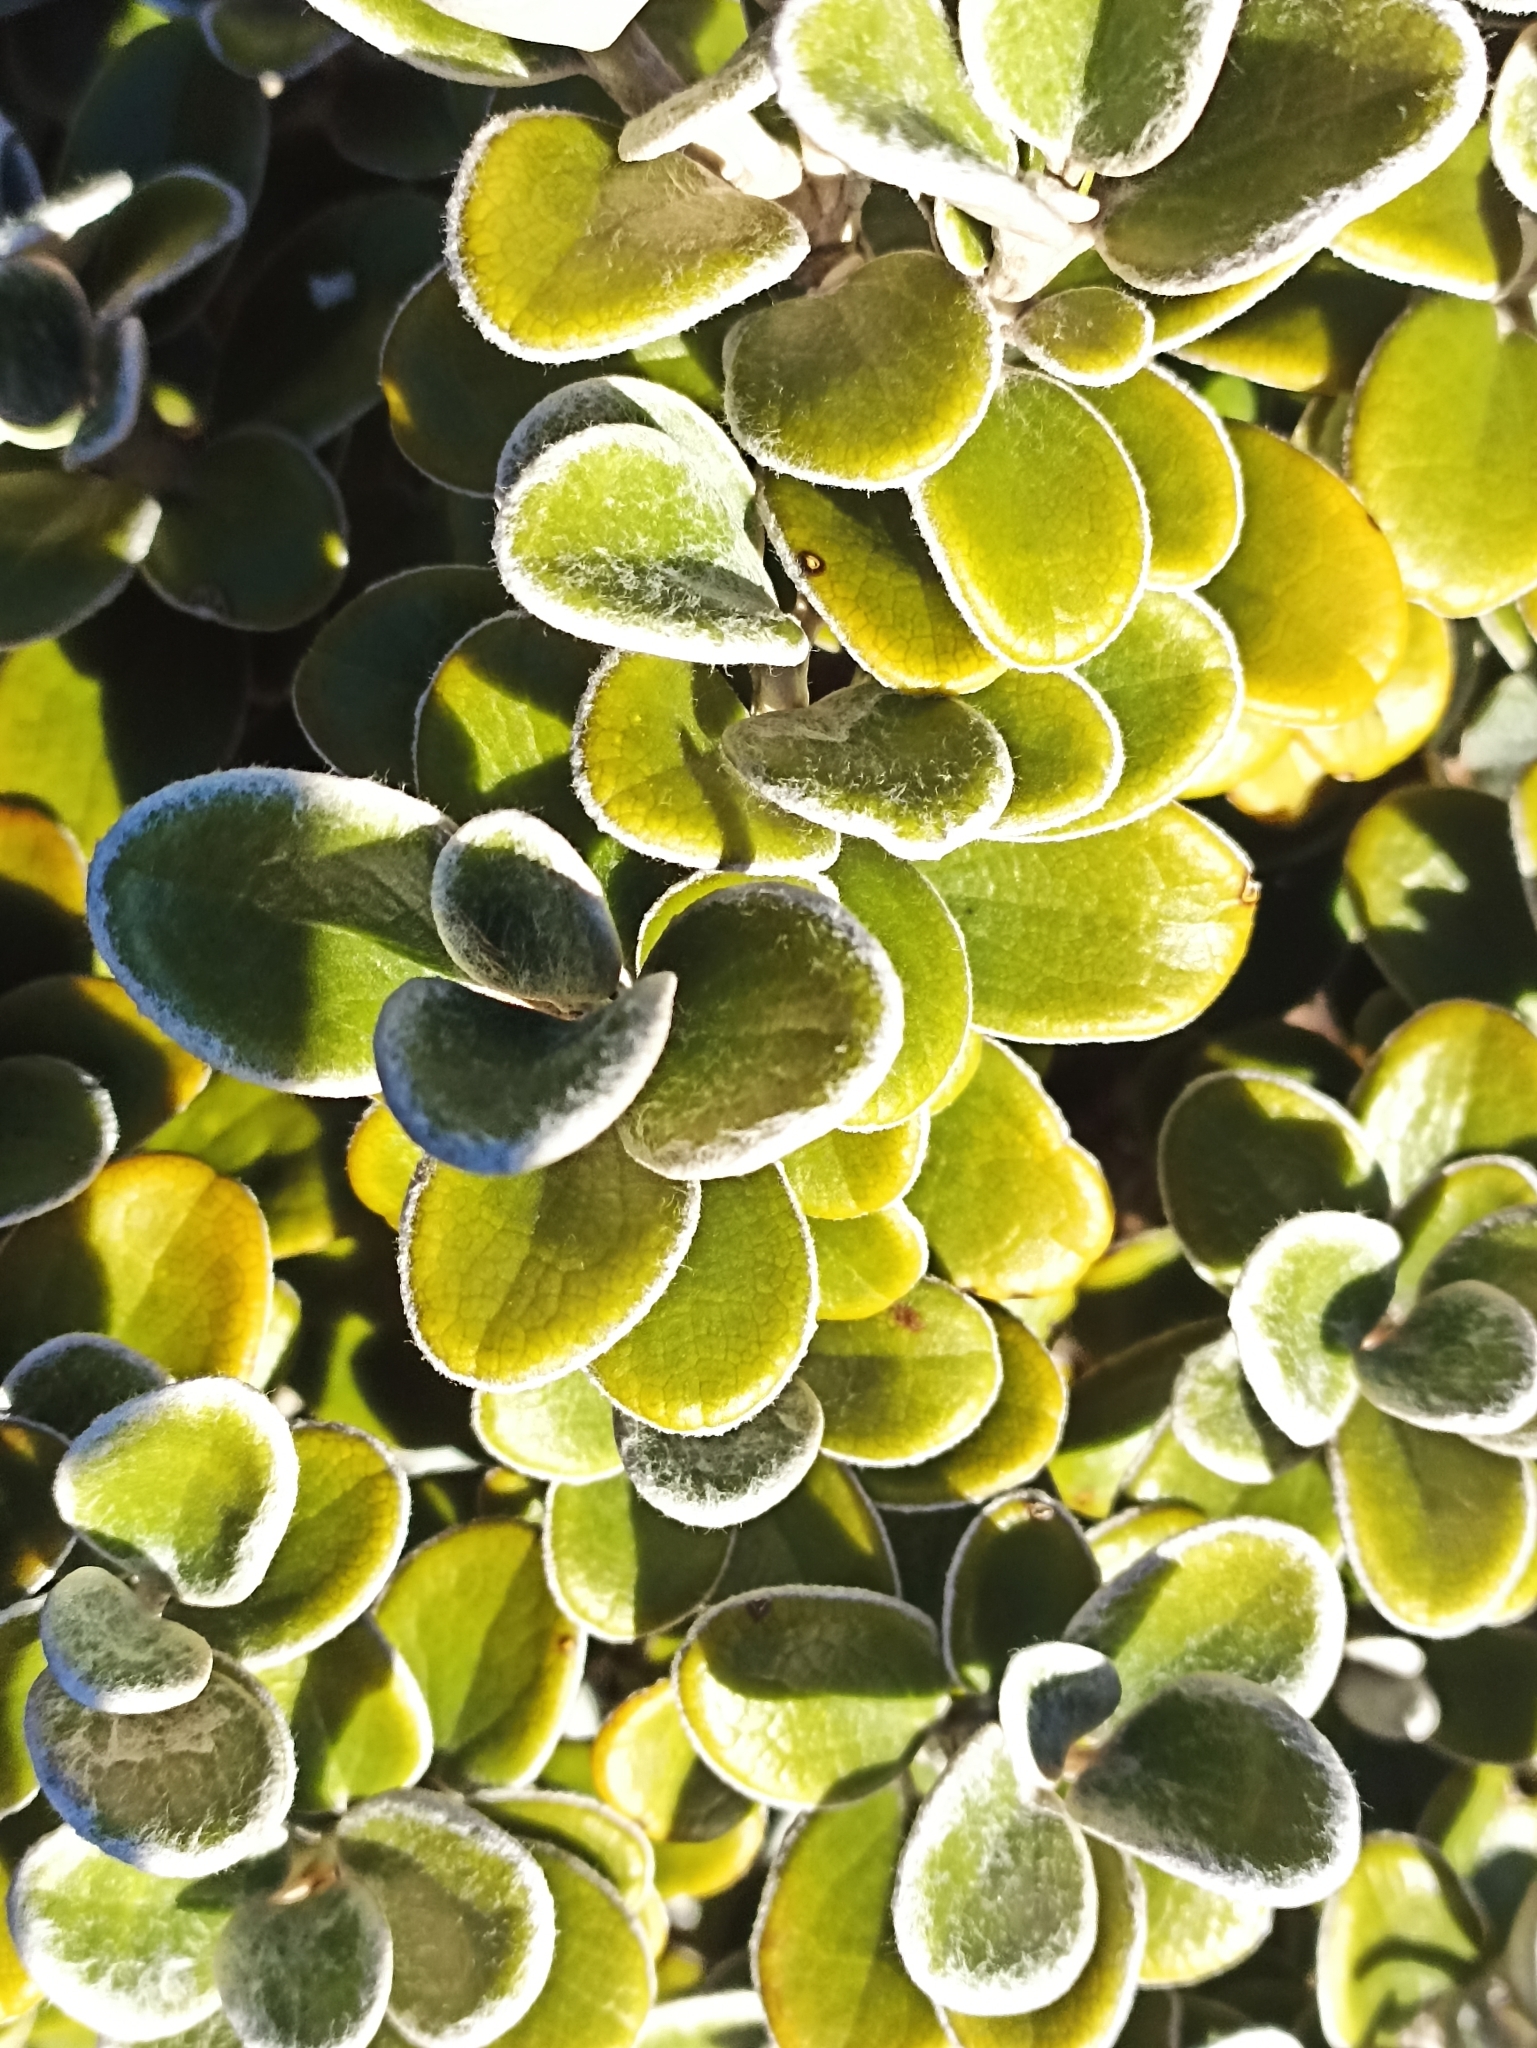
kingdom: Plantae
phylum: Tracheophyta
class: Magnoliopsida
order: Asterales
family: Asteraceae
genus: Brachyglottis
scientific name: Brachyglottis bidwillii
